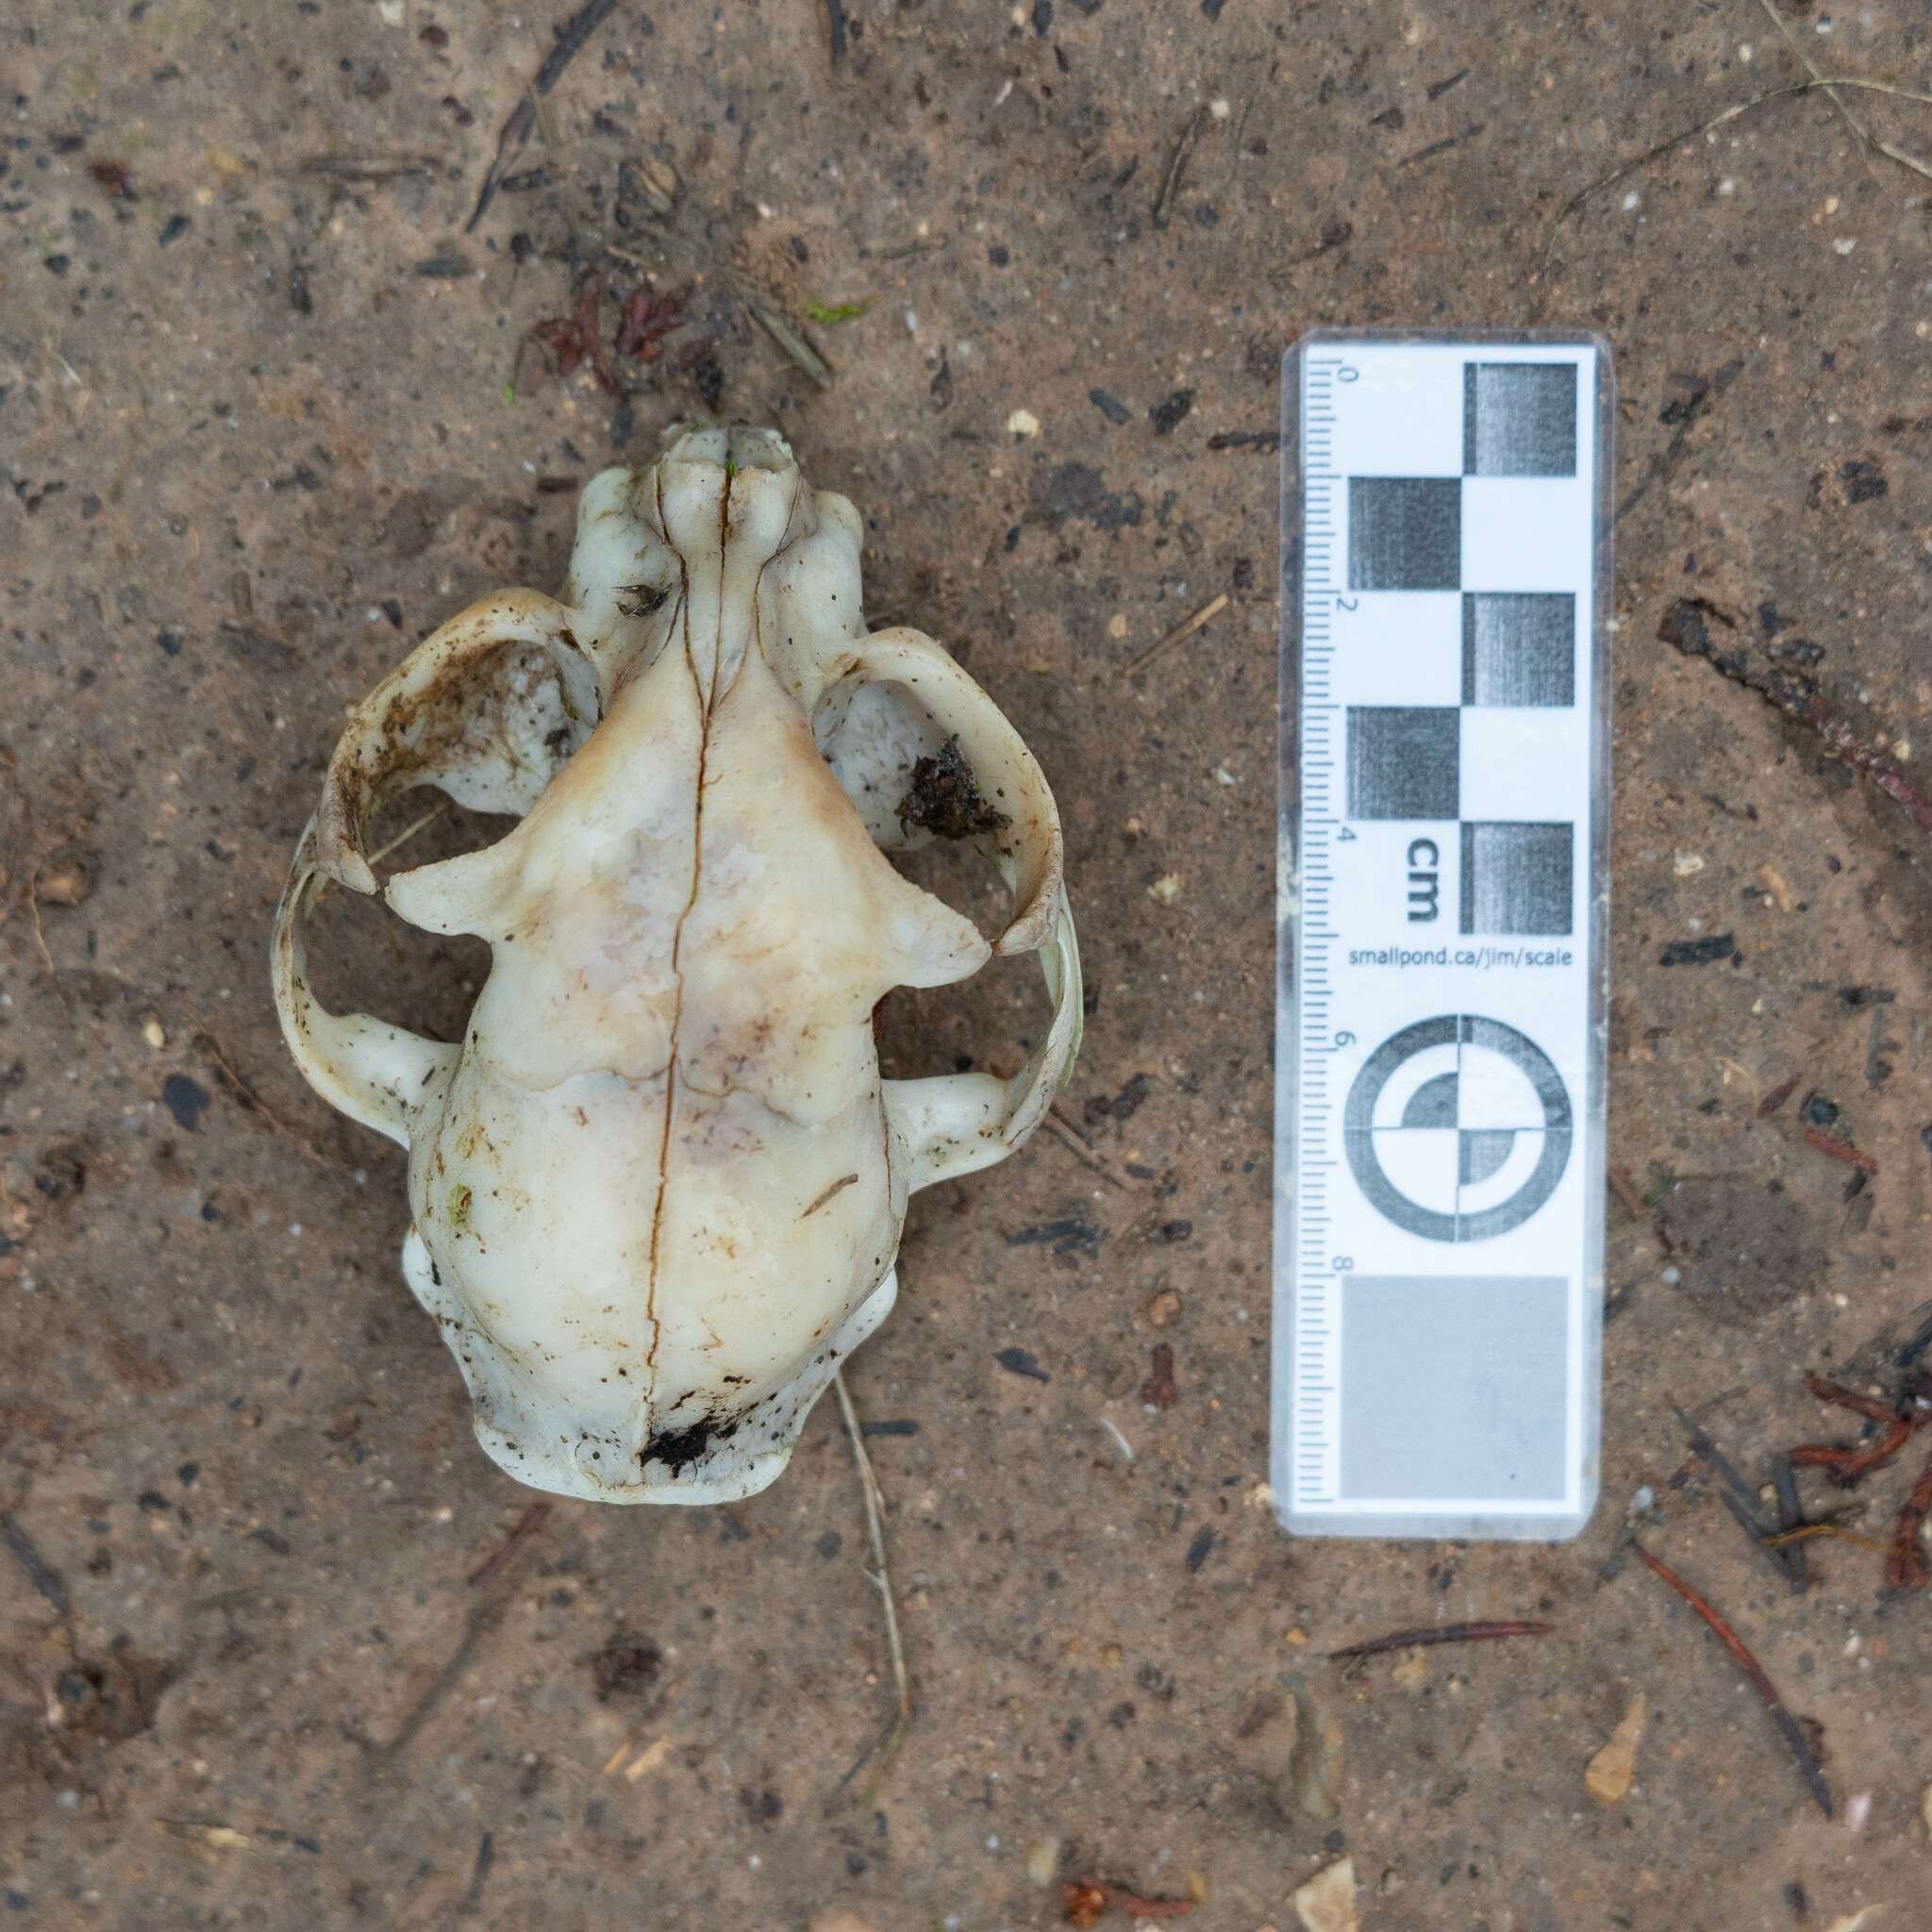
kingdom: Animalia
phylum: Chordata
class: Mammalia
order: Carnivora
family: Felidae
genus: Felis
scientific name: Felis catus
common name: Domestic cat
